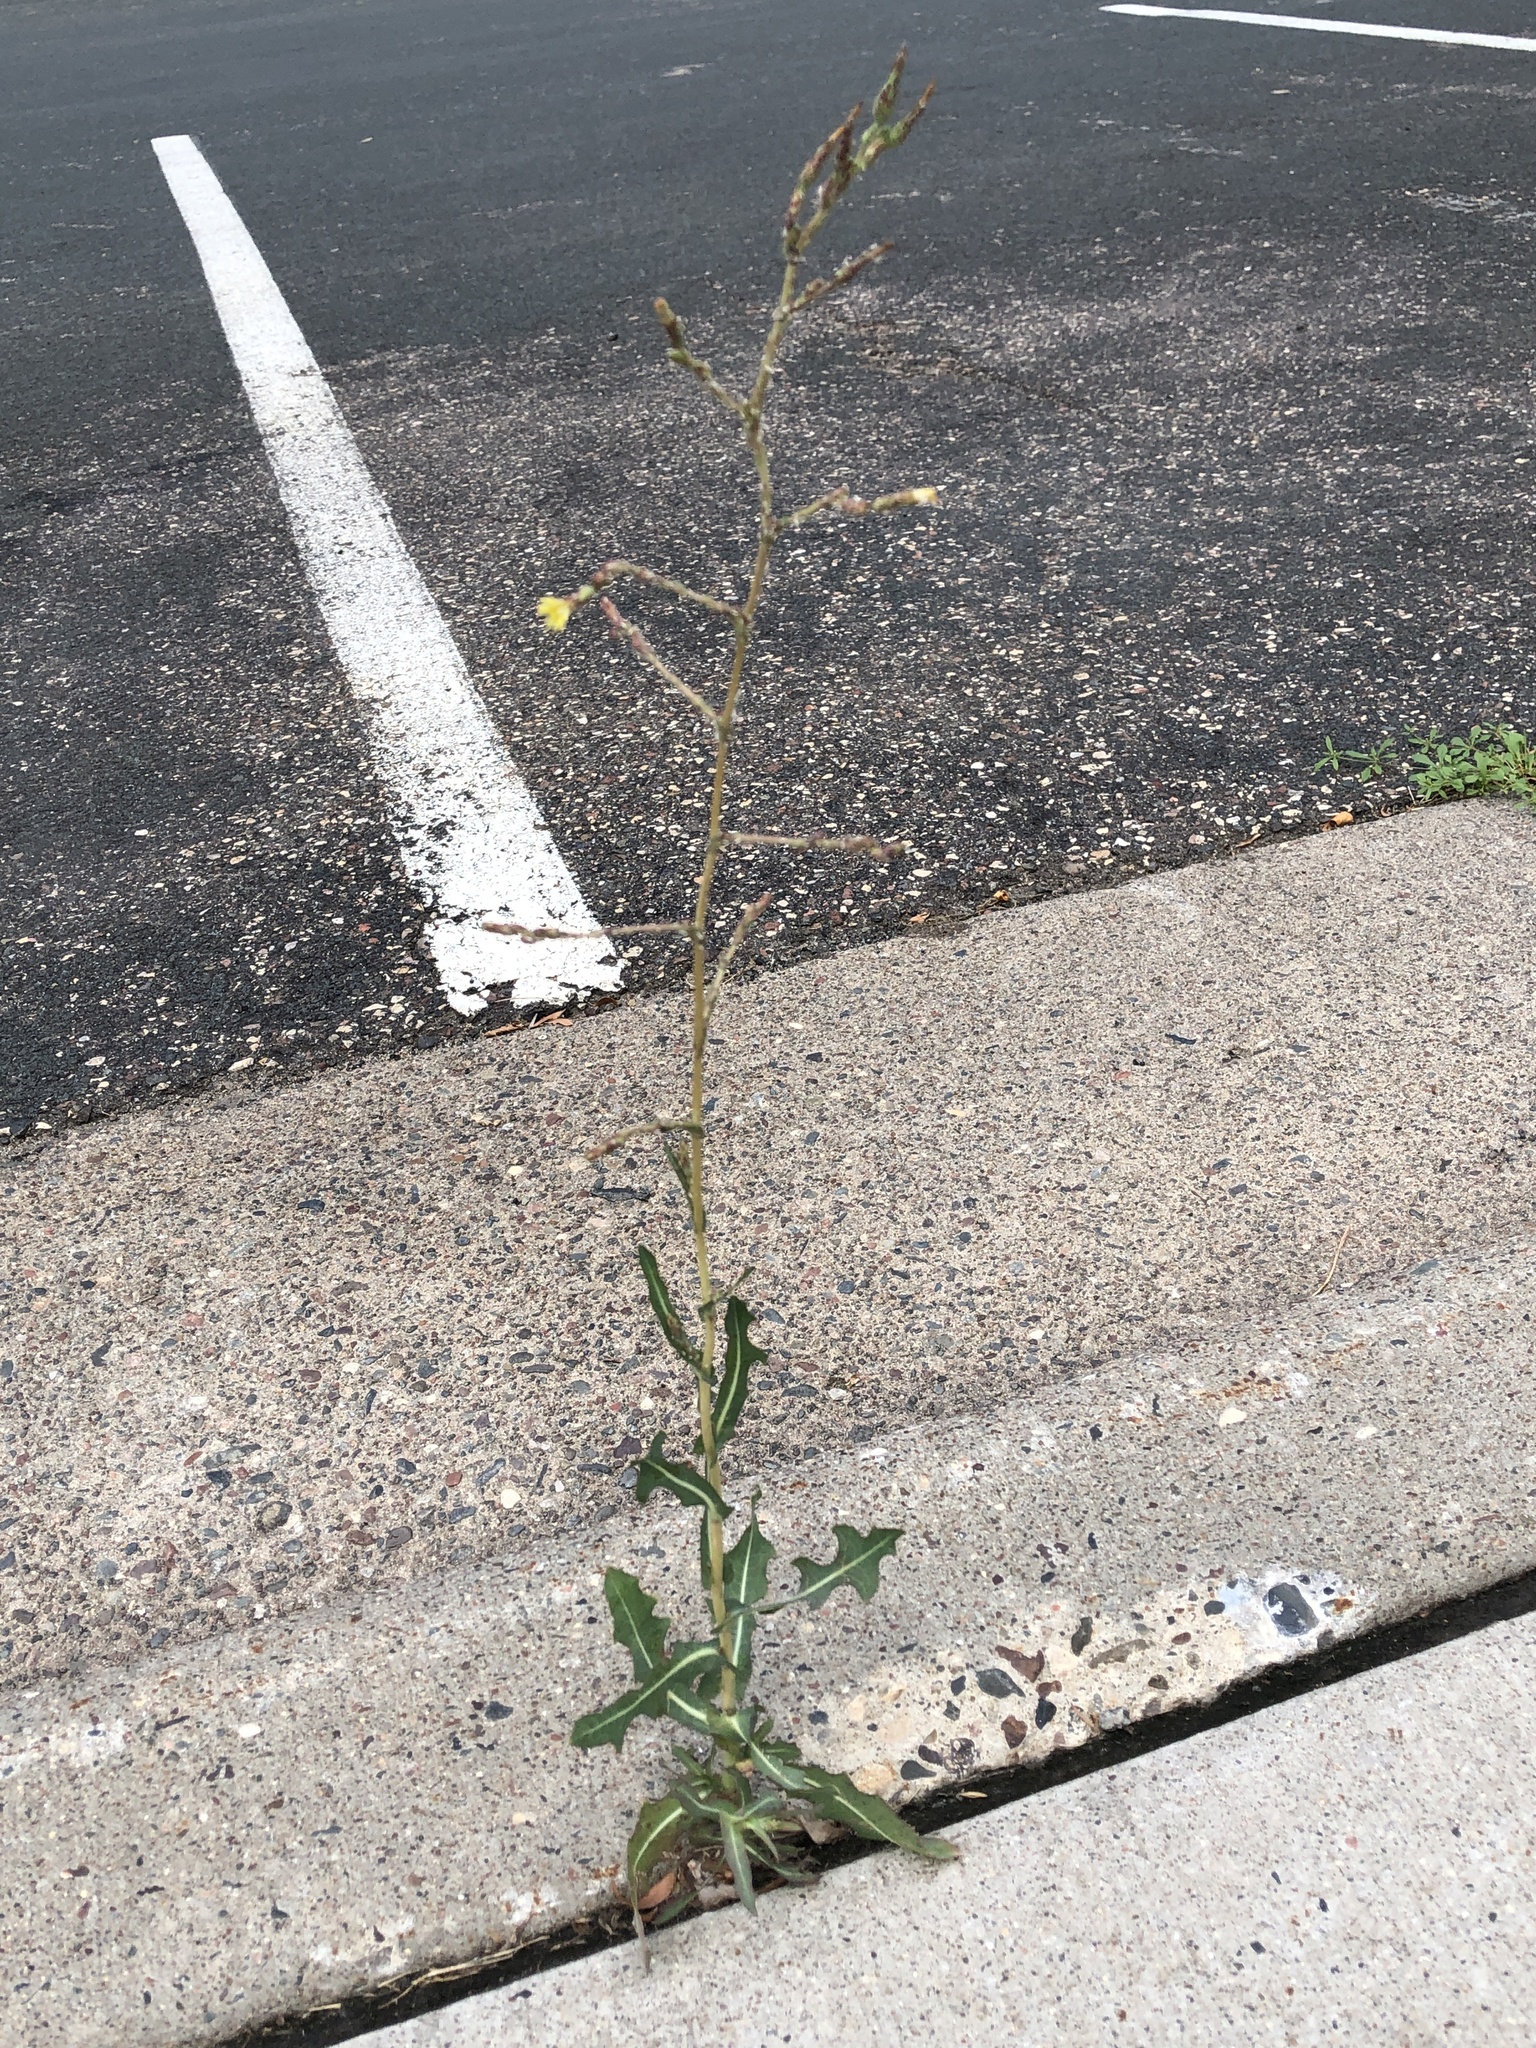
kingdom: Plantae
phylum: Tracheophyta
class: Magnoliopsida
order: Asterales
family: Asteraceae
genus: Lactuca
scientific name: Lactuca serriola
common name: Prickly lettuce
